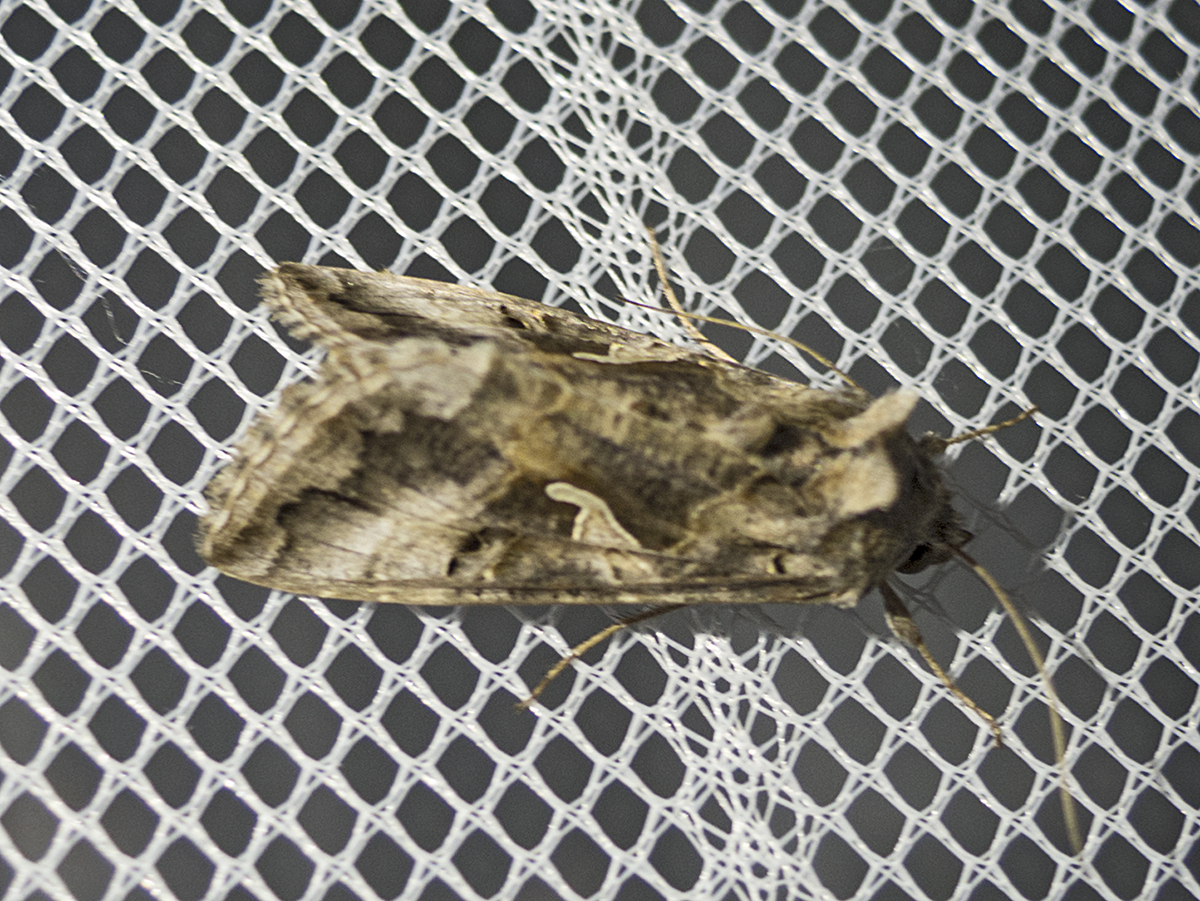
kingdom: Animalia
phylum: Arthropoda
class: Insecta
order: Lepidoptera
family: Noctuidae
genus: Autographa
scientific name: Autographa gamma
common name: Silver y
